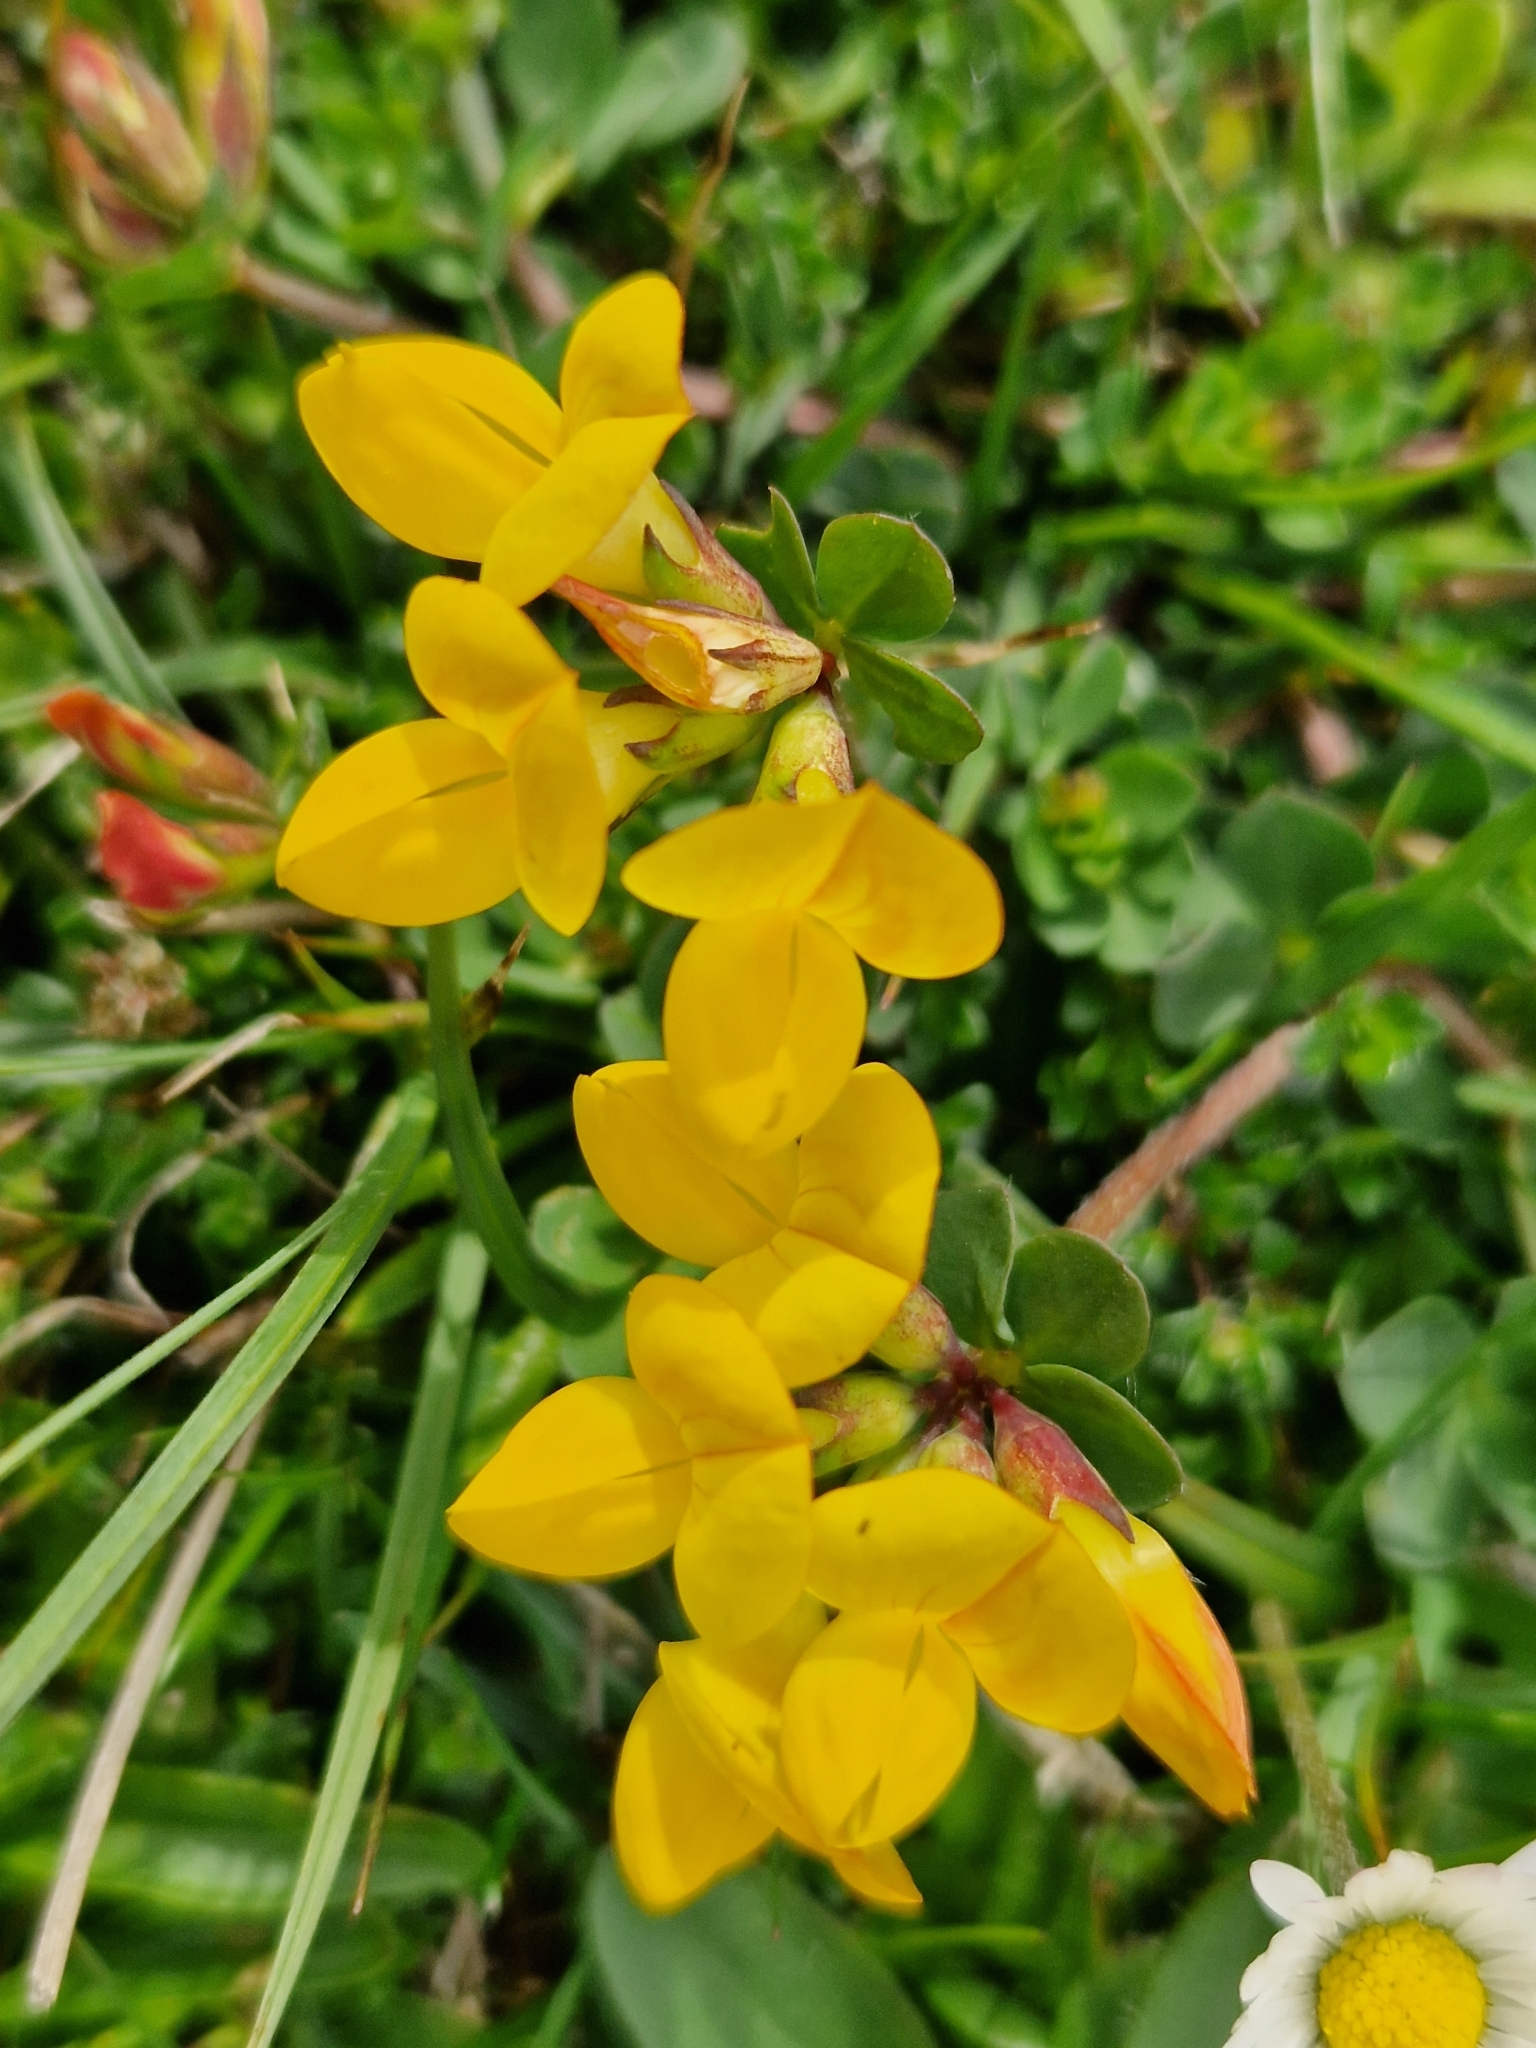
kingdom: Plantae
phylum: Tracheophyta
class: Magnoliopsida
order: Fabales
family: Fabaceae
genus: Lotus
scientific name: Lotus corniculatus
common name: Common bird's-foot-trefoil
